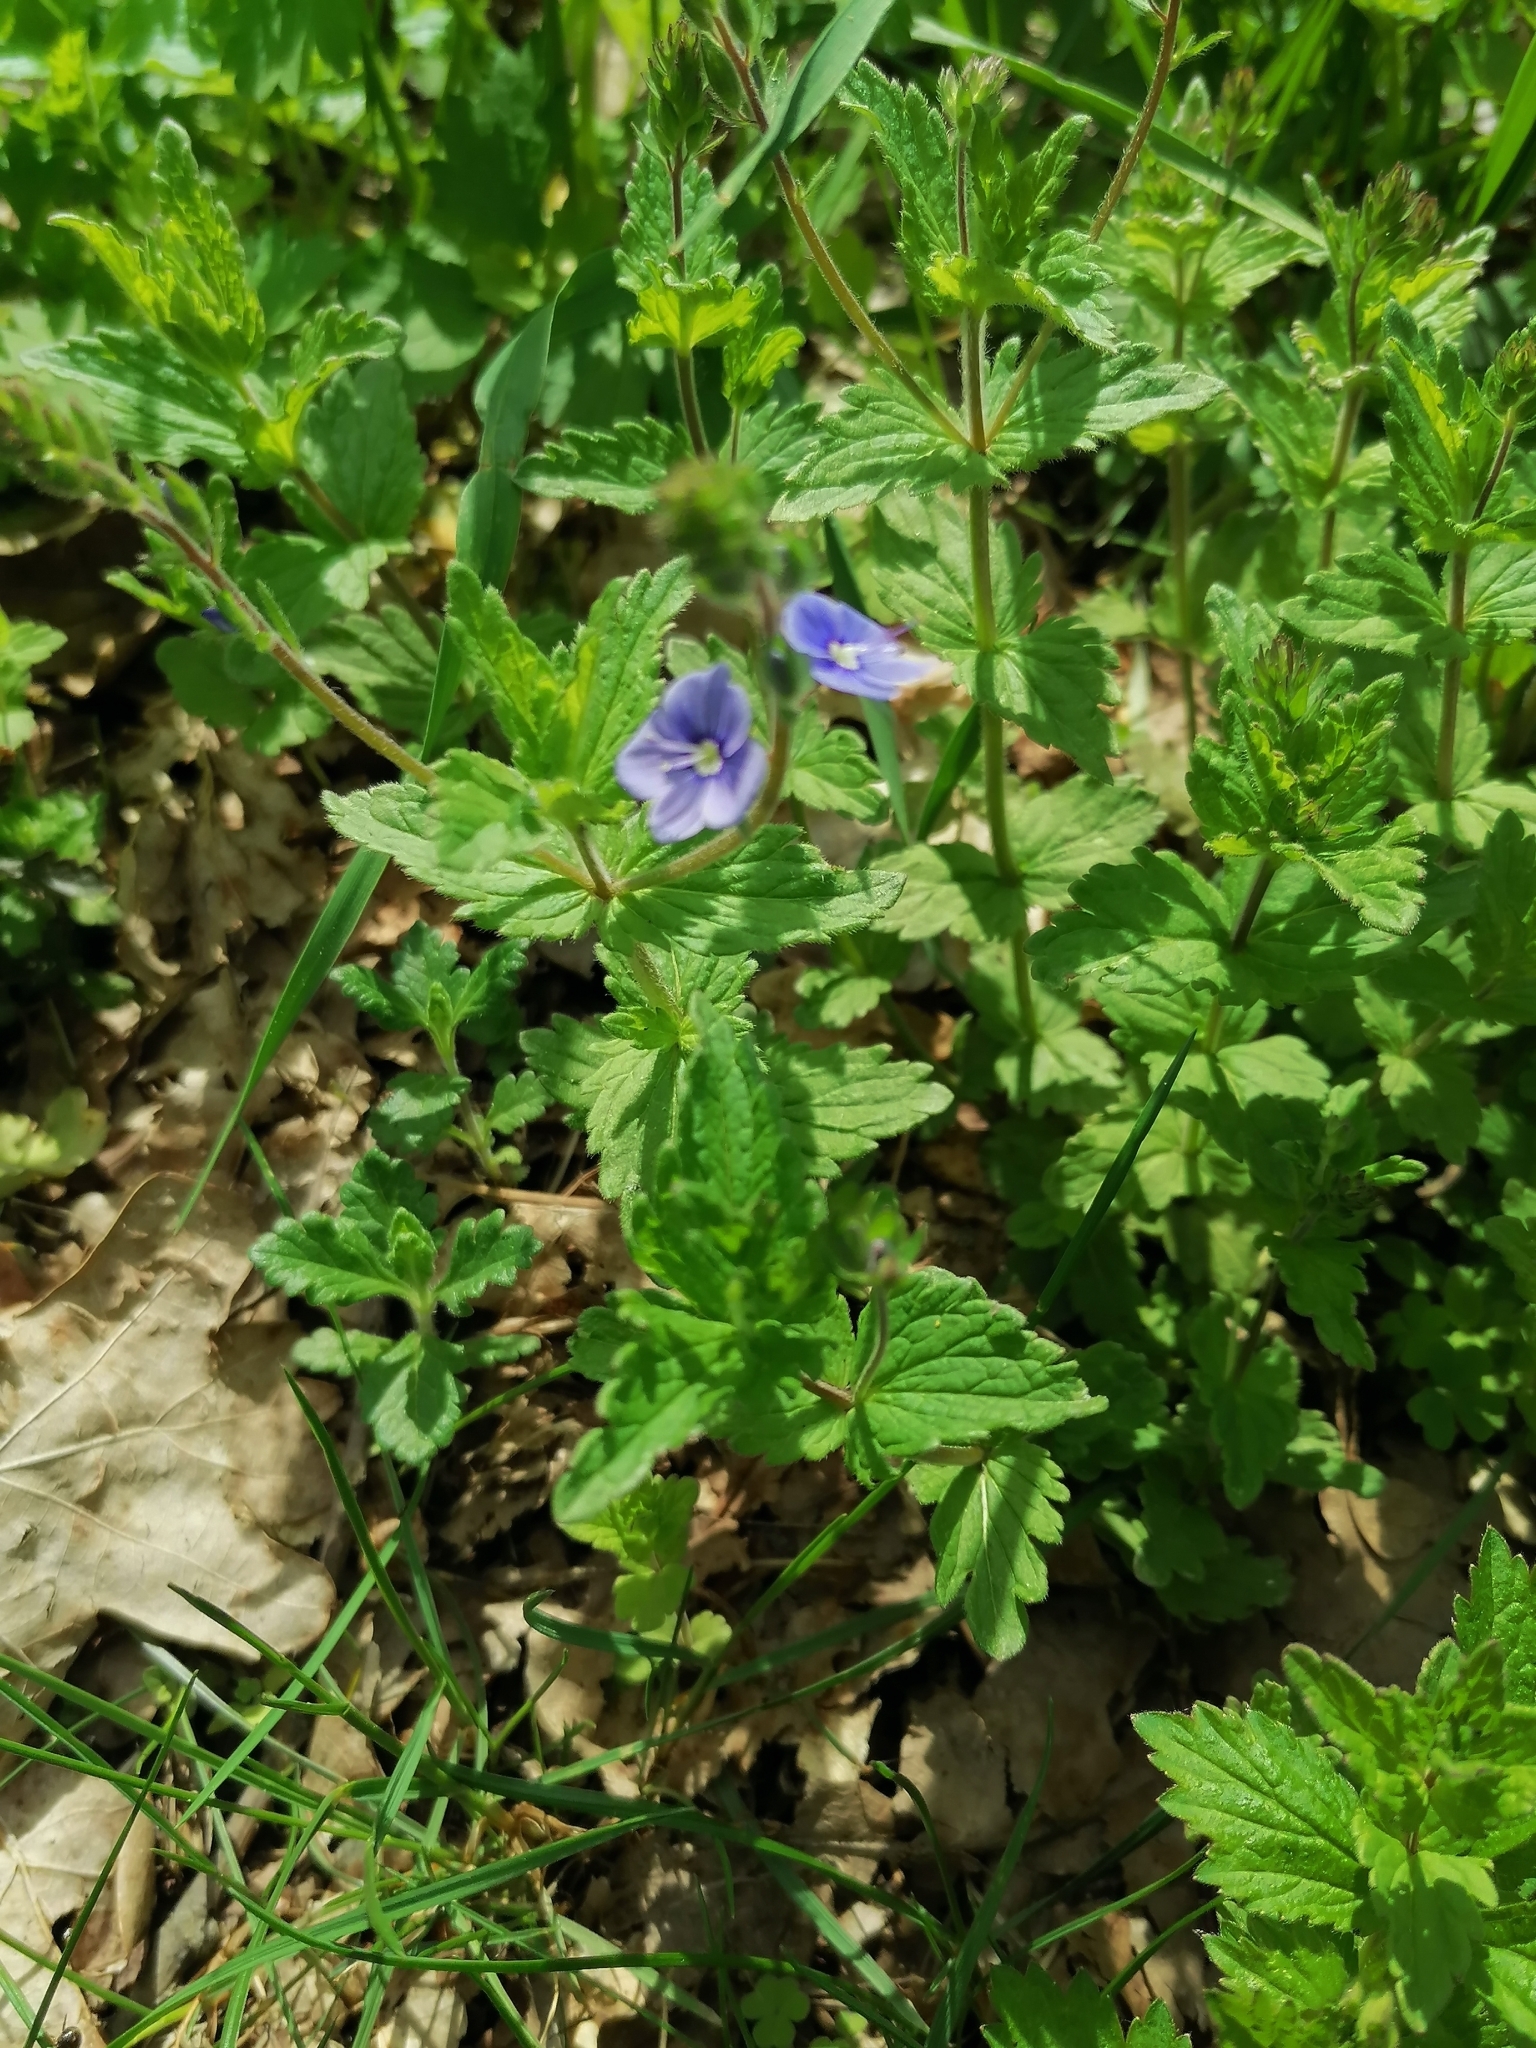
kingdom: Plantae
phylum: Tracheophyta
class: Magnoliopsida
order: Lamiales
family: Plantaginaceae
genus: Veronica
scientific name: Veronica chamaedrys
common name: Germander speedwell
